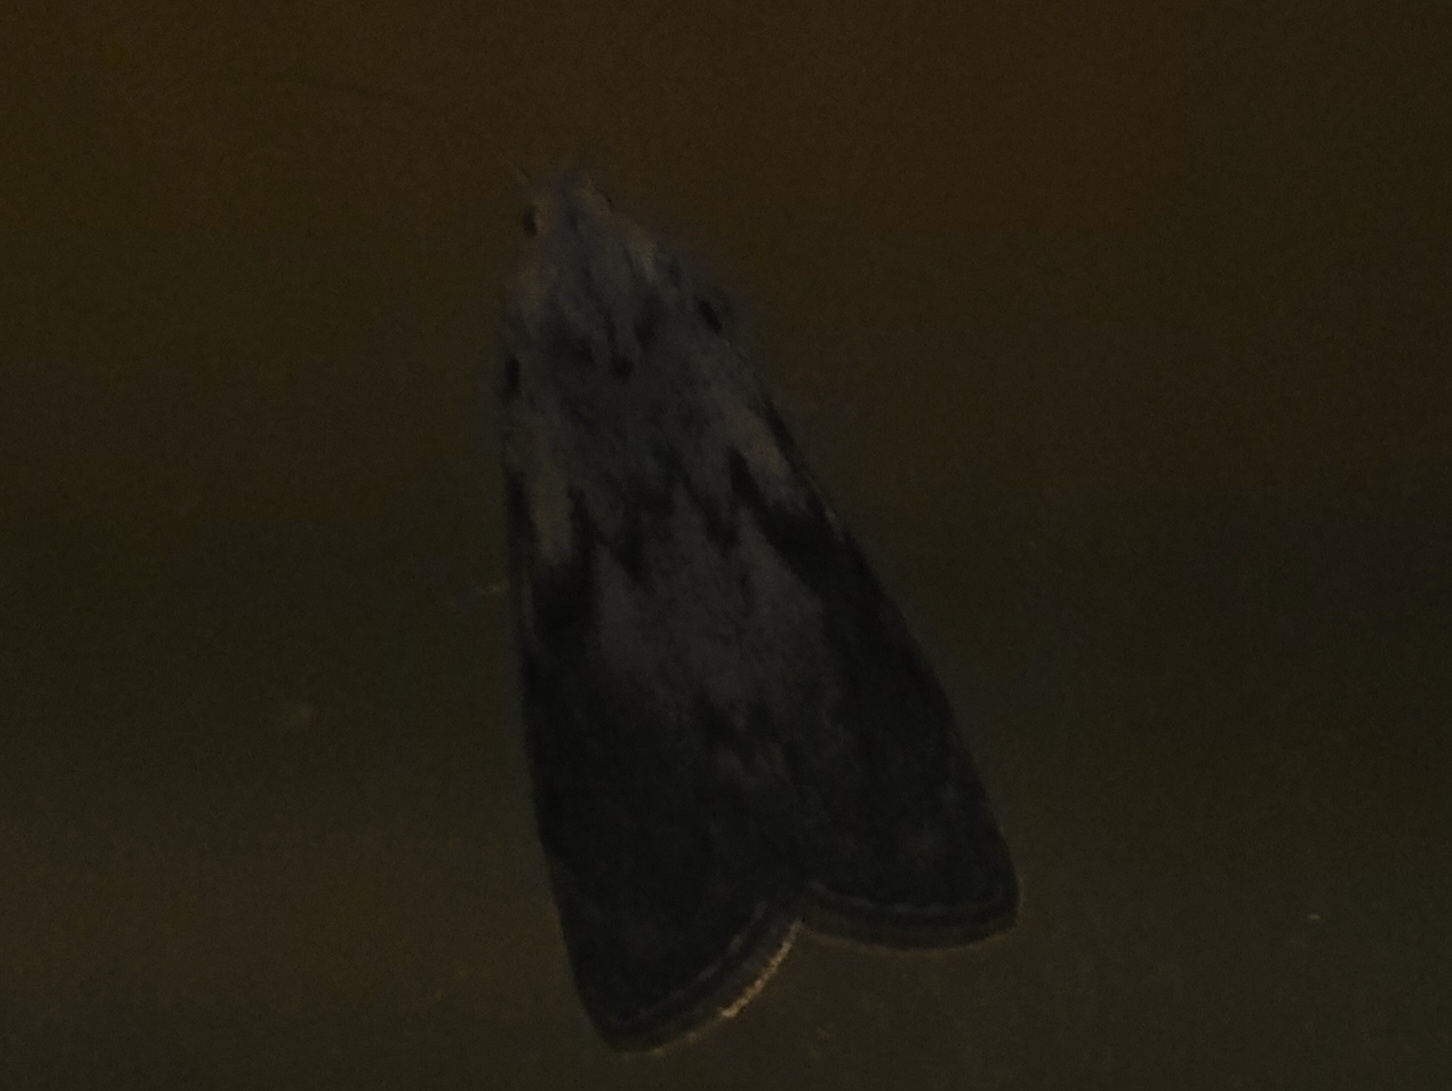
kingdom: Animalia
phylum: Arthropoda
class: Insecta
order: Lepidoptera
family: Pyralidae
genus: Aphomia
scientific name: Aphomia sociella
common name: Bee moth
